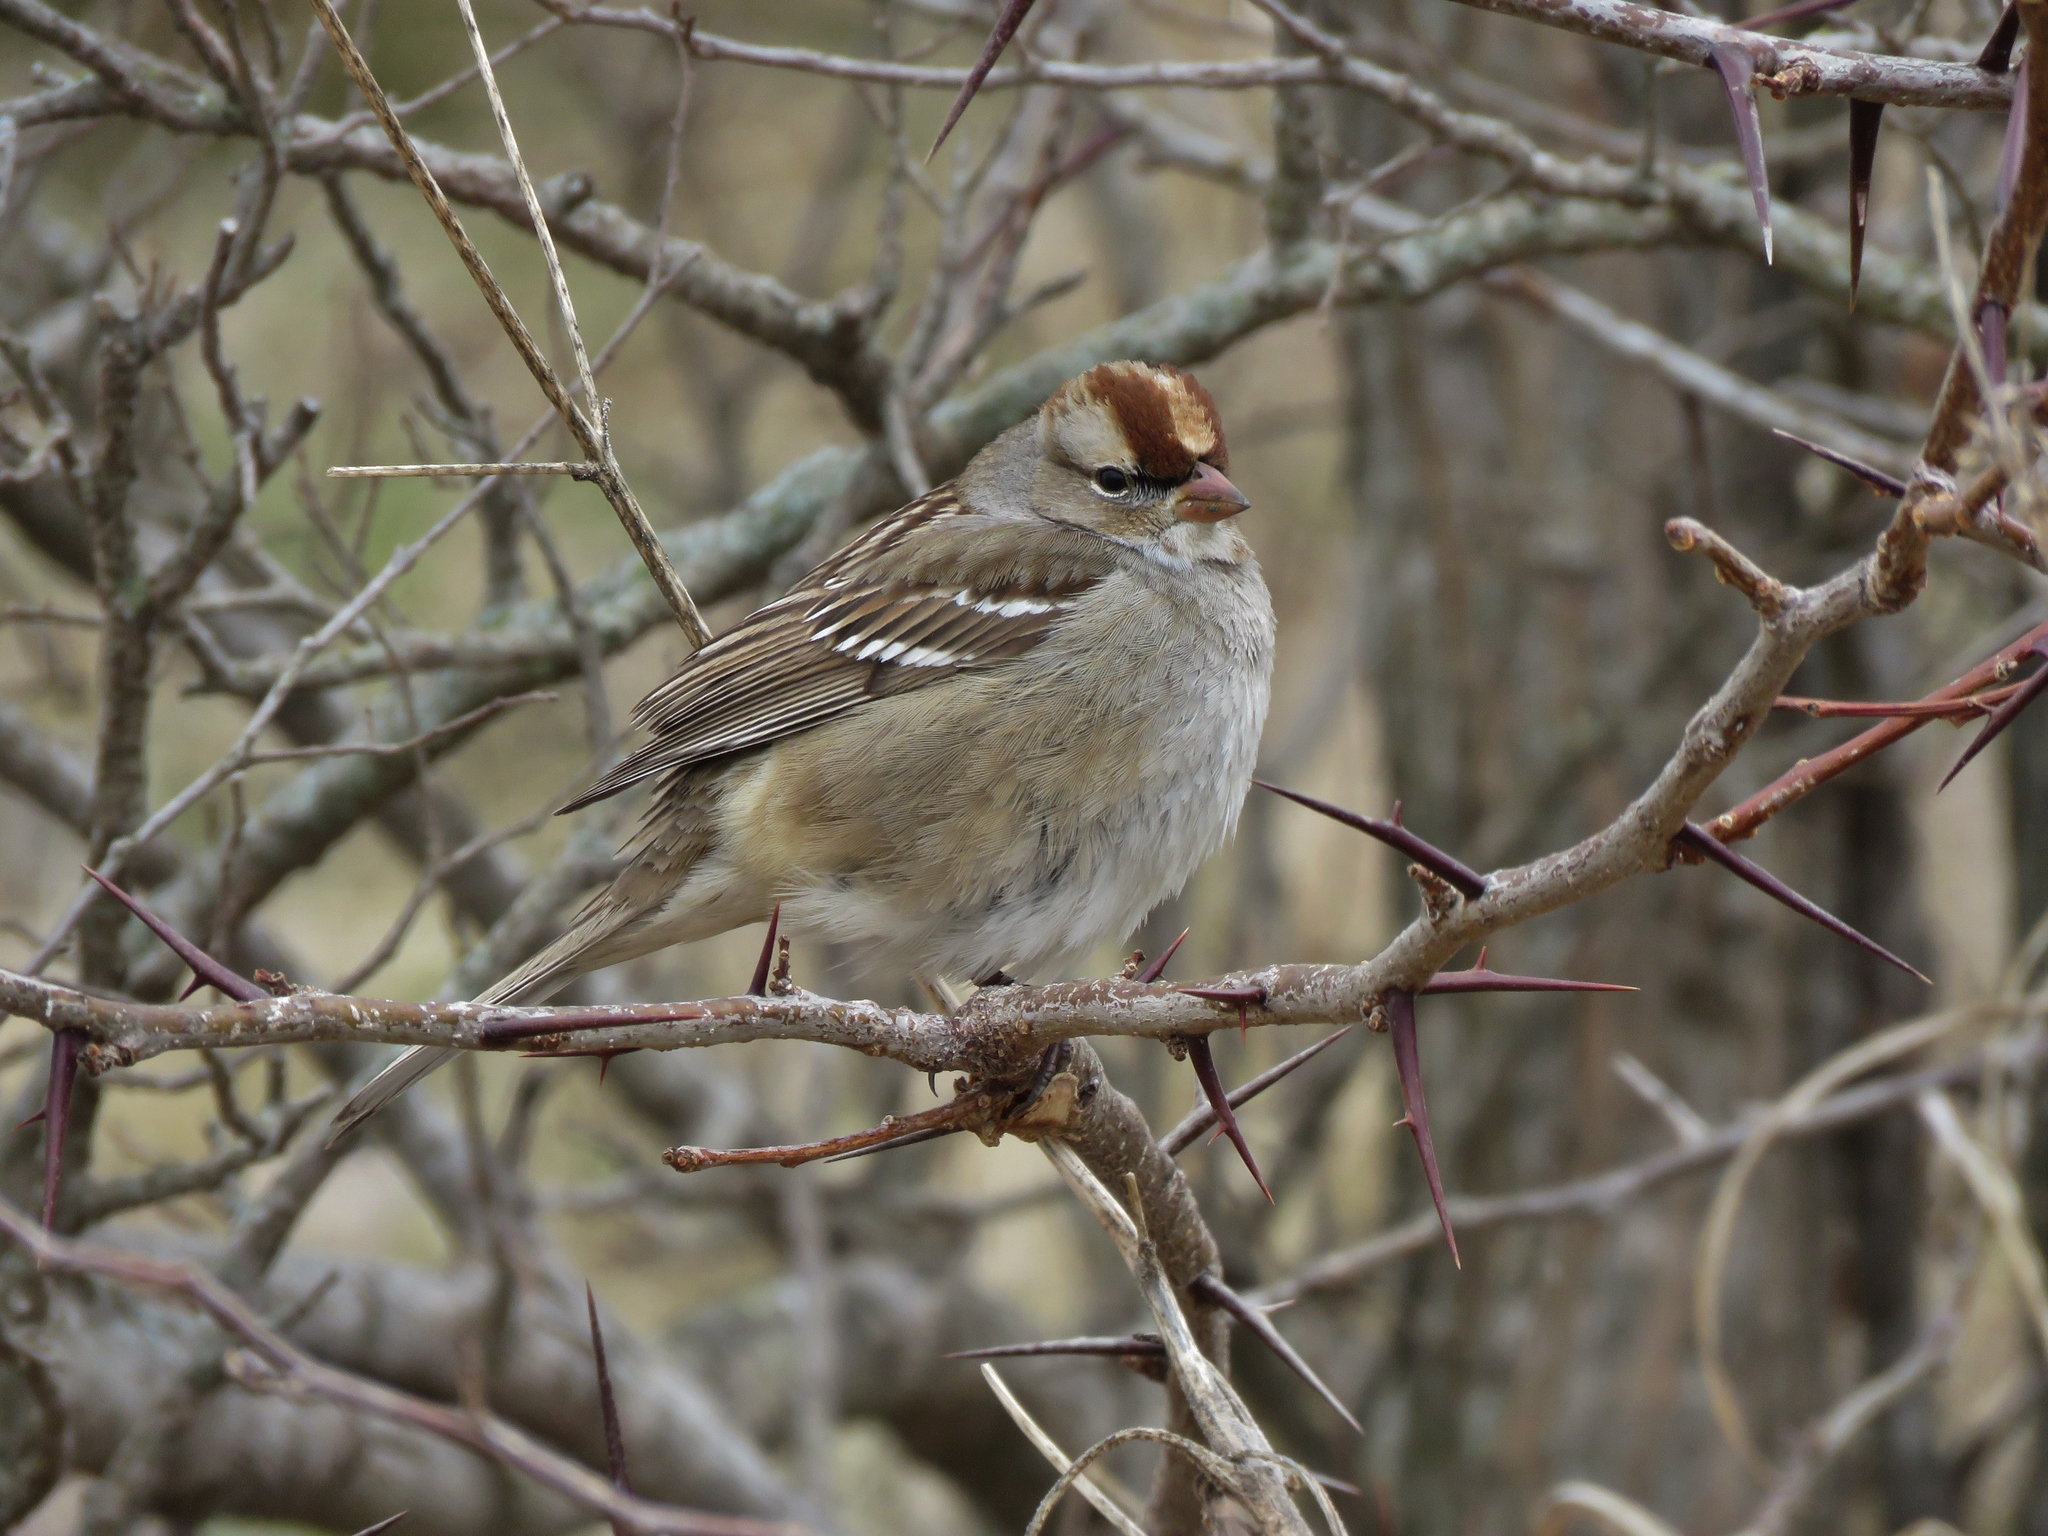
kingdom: Animalia
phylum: Chordata
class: Aves
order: Passeriformes
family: Passerellidae
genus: Zonotrichia
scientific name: Zonotrichia leucophrys
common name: White-crowned sparrow
